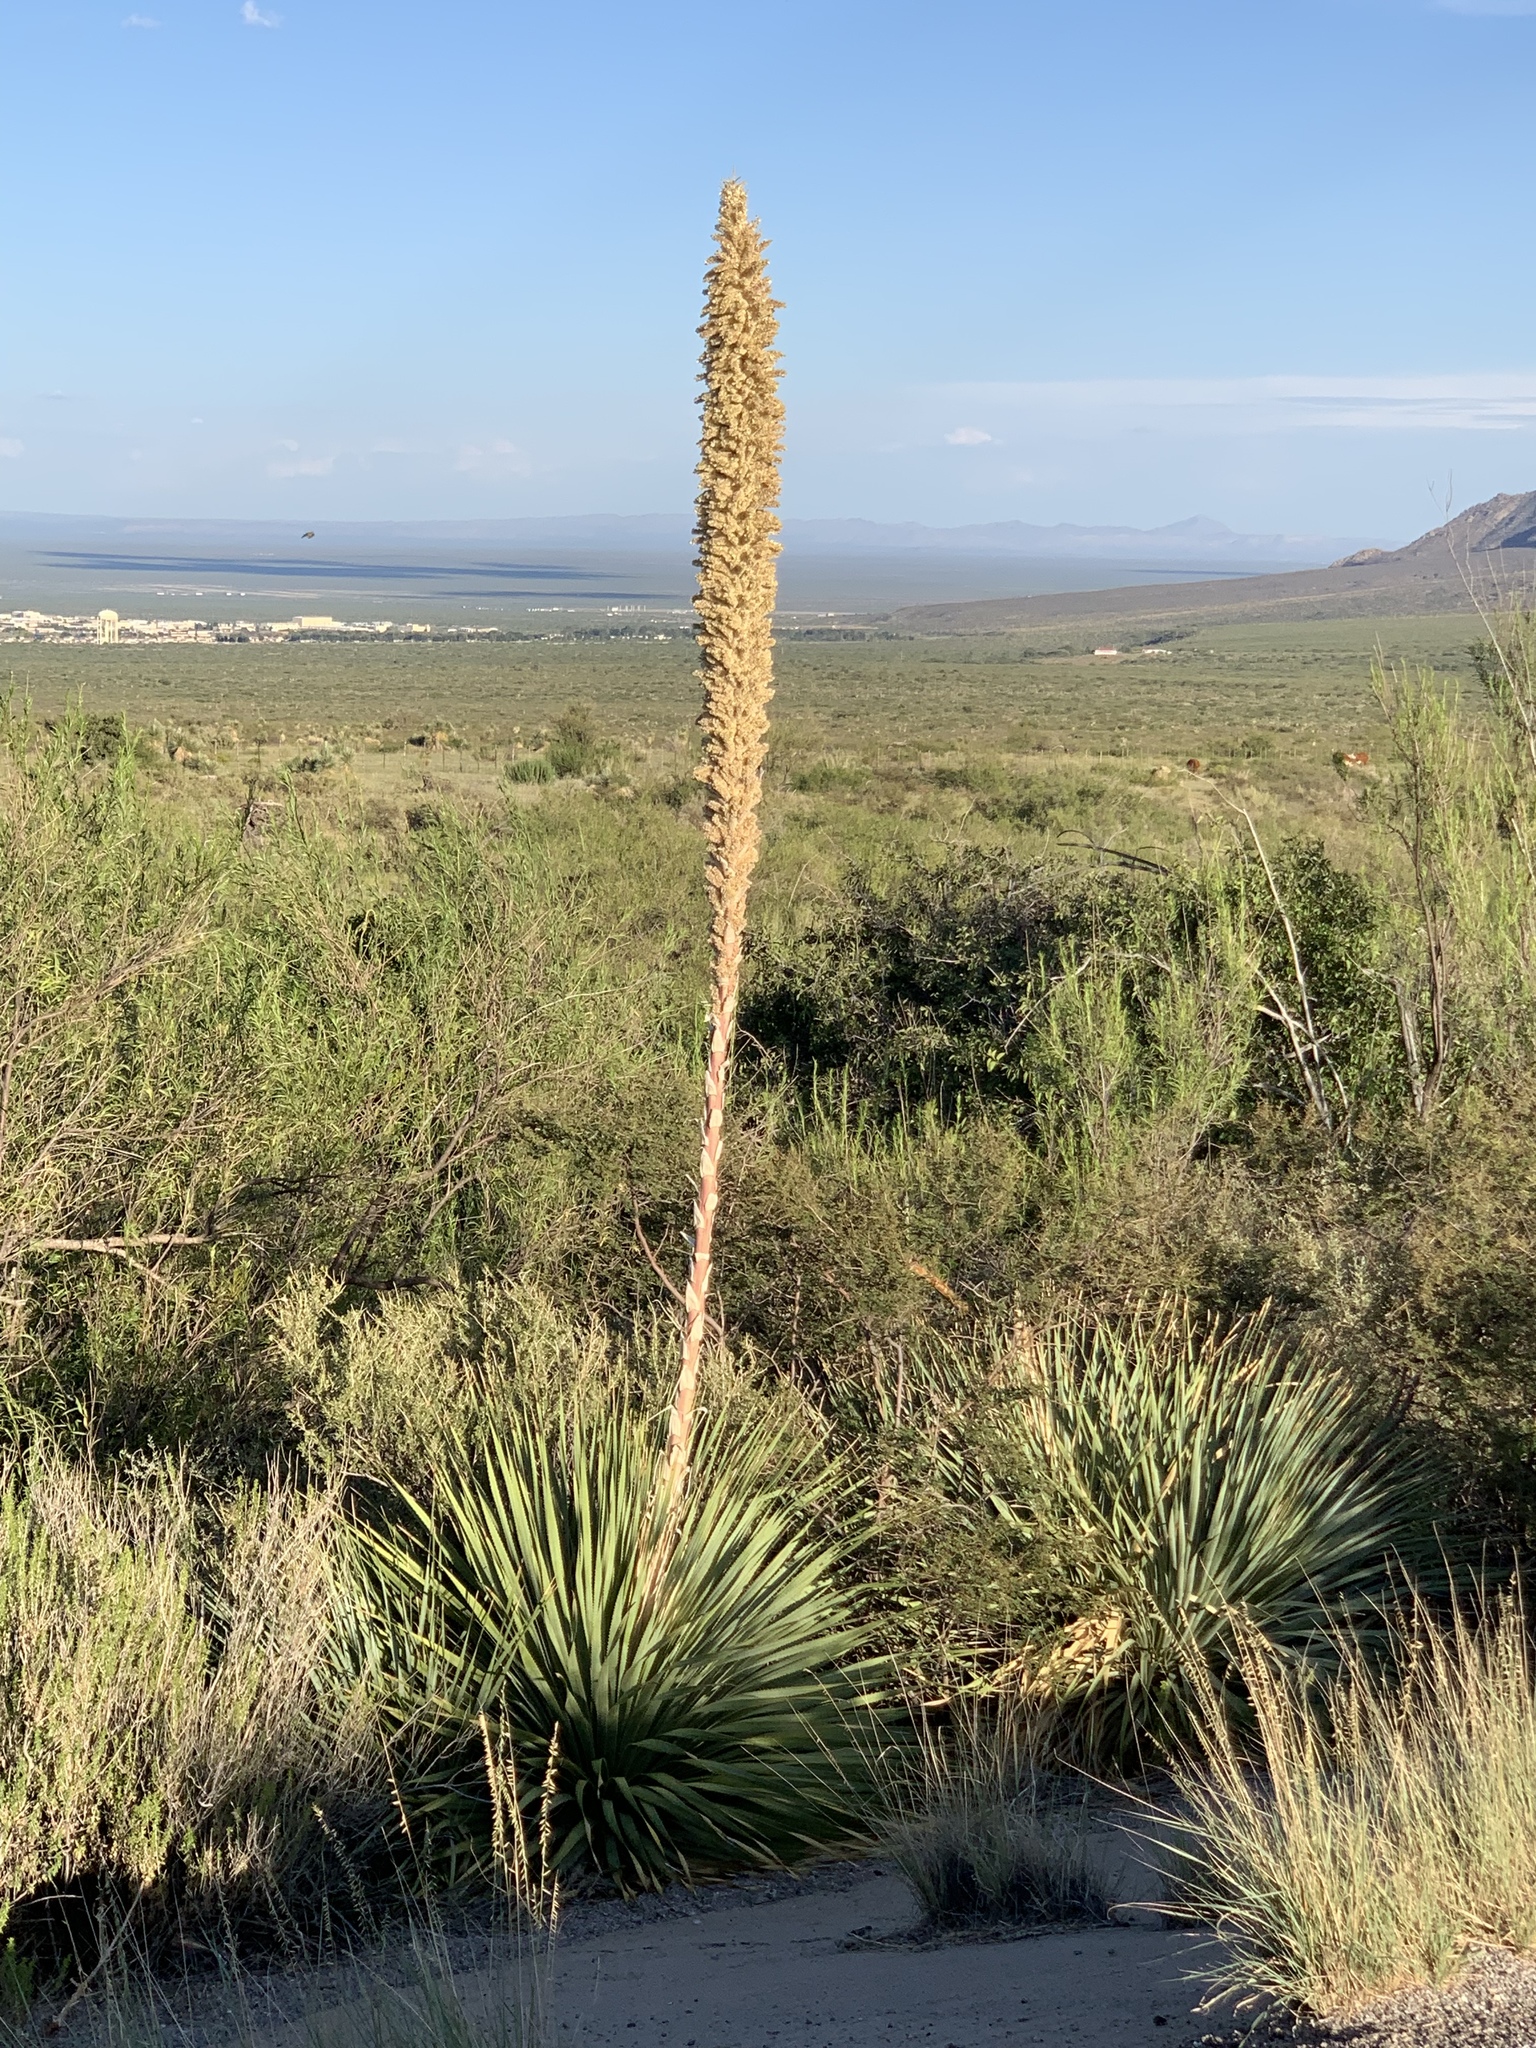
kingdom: Plantae
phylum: Tracheophyta
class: Liliopsida
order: Asparagales
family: Asparagaceae
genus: Dasylirion
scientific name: Dasylirion wheeleri
